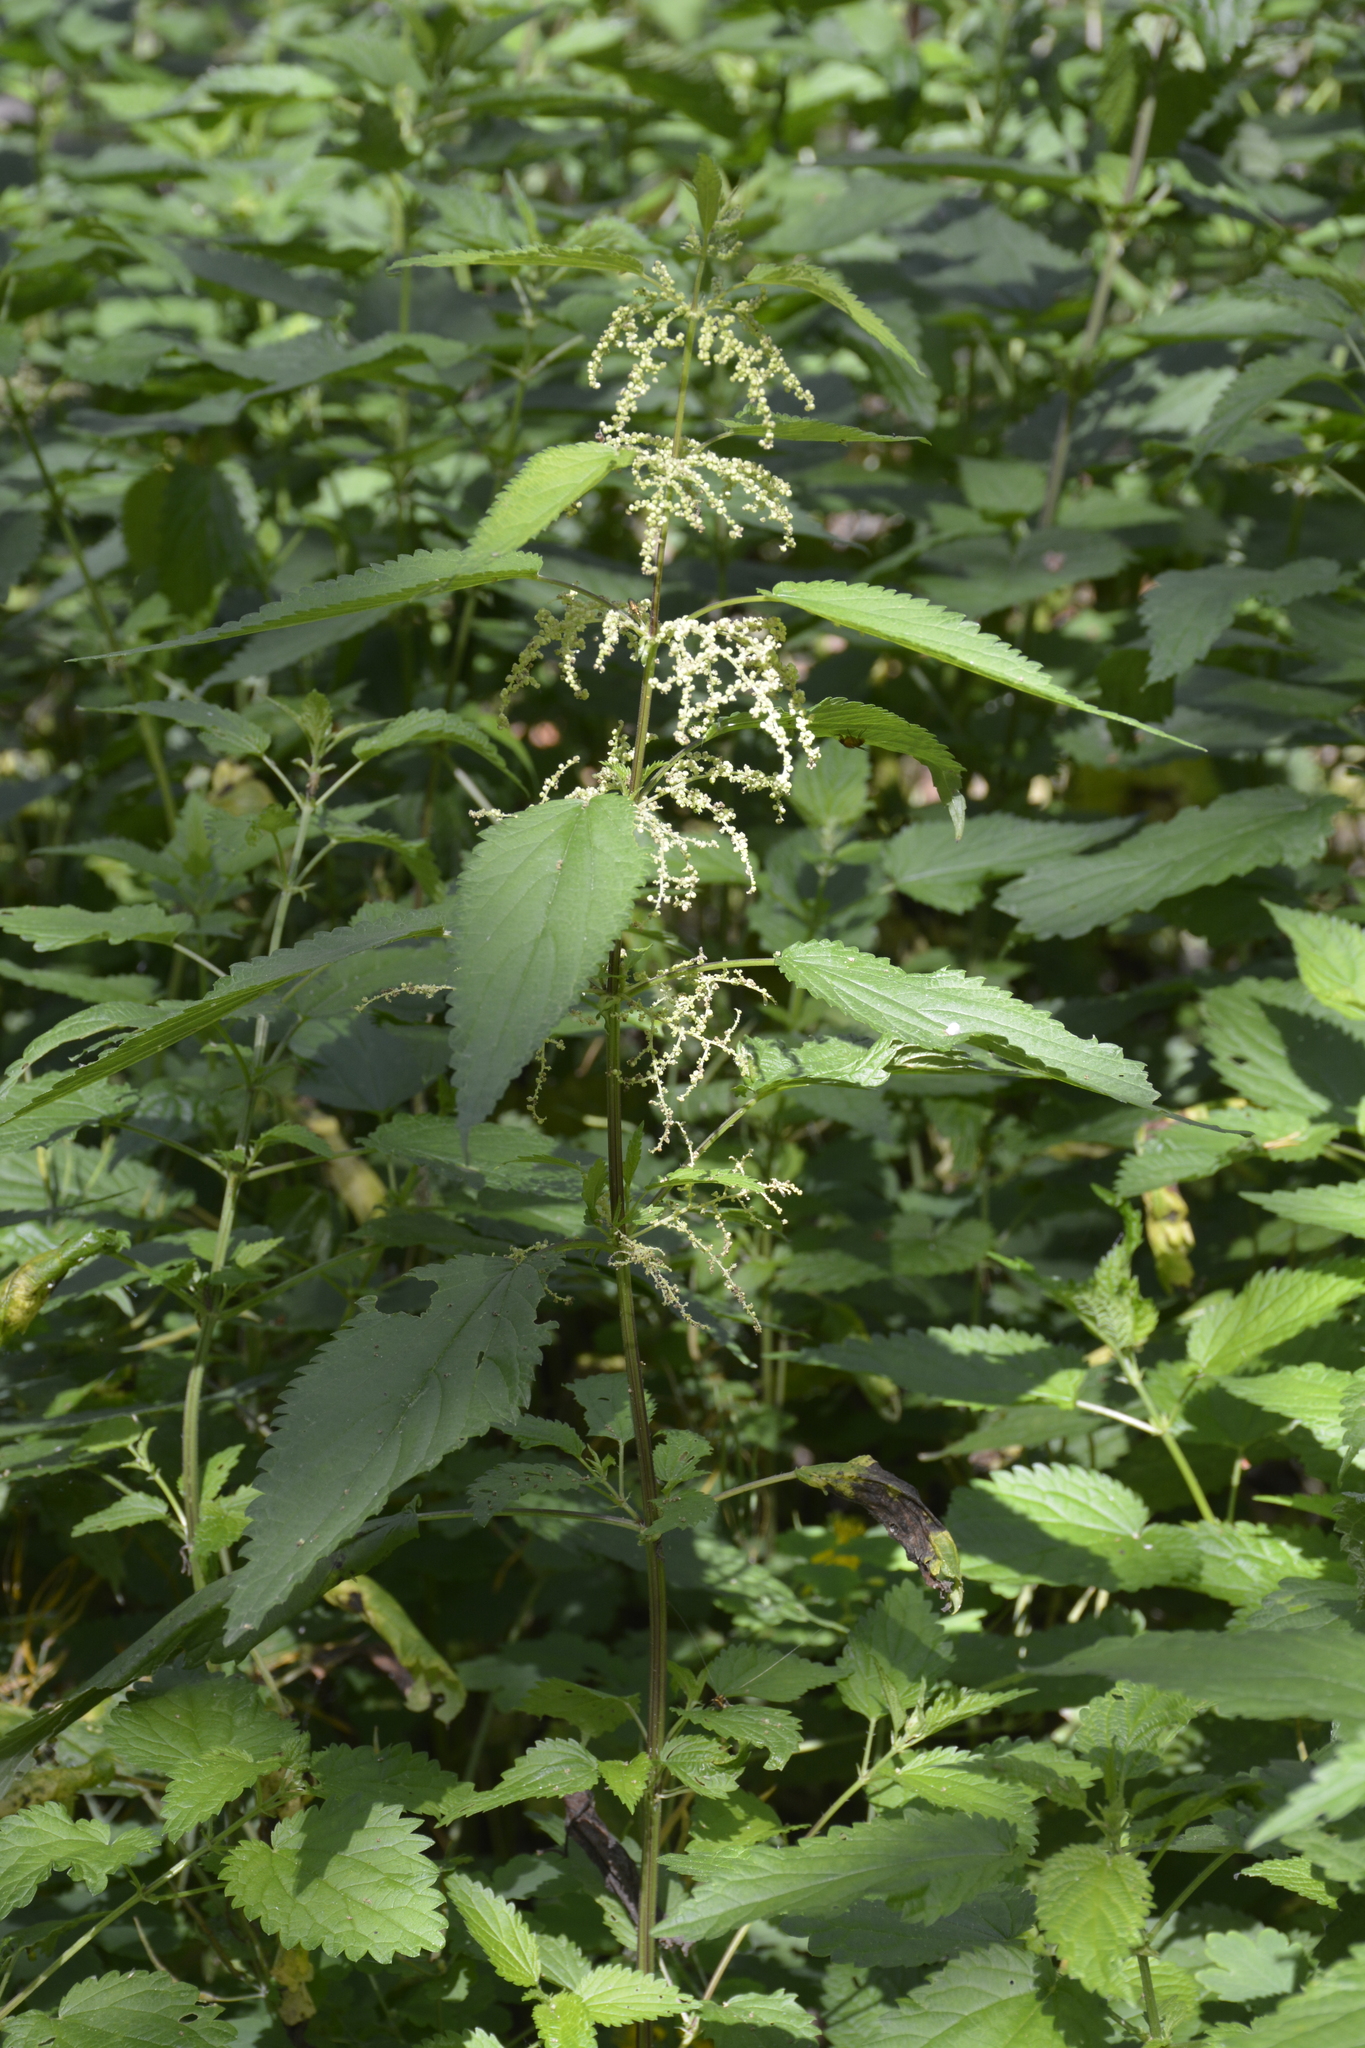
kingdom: Plantae
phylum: Tracheophyta
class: Magnoliopsida
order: Rosales
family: Urticaceae
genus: Urtica
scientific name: Urtica dioica
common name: Common nettle
